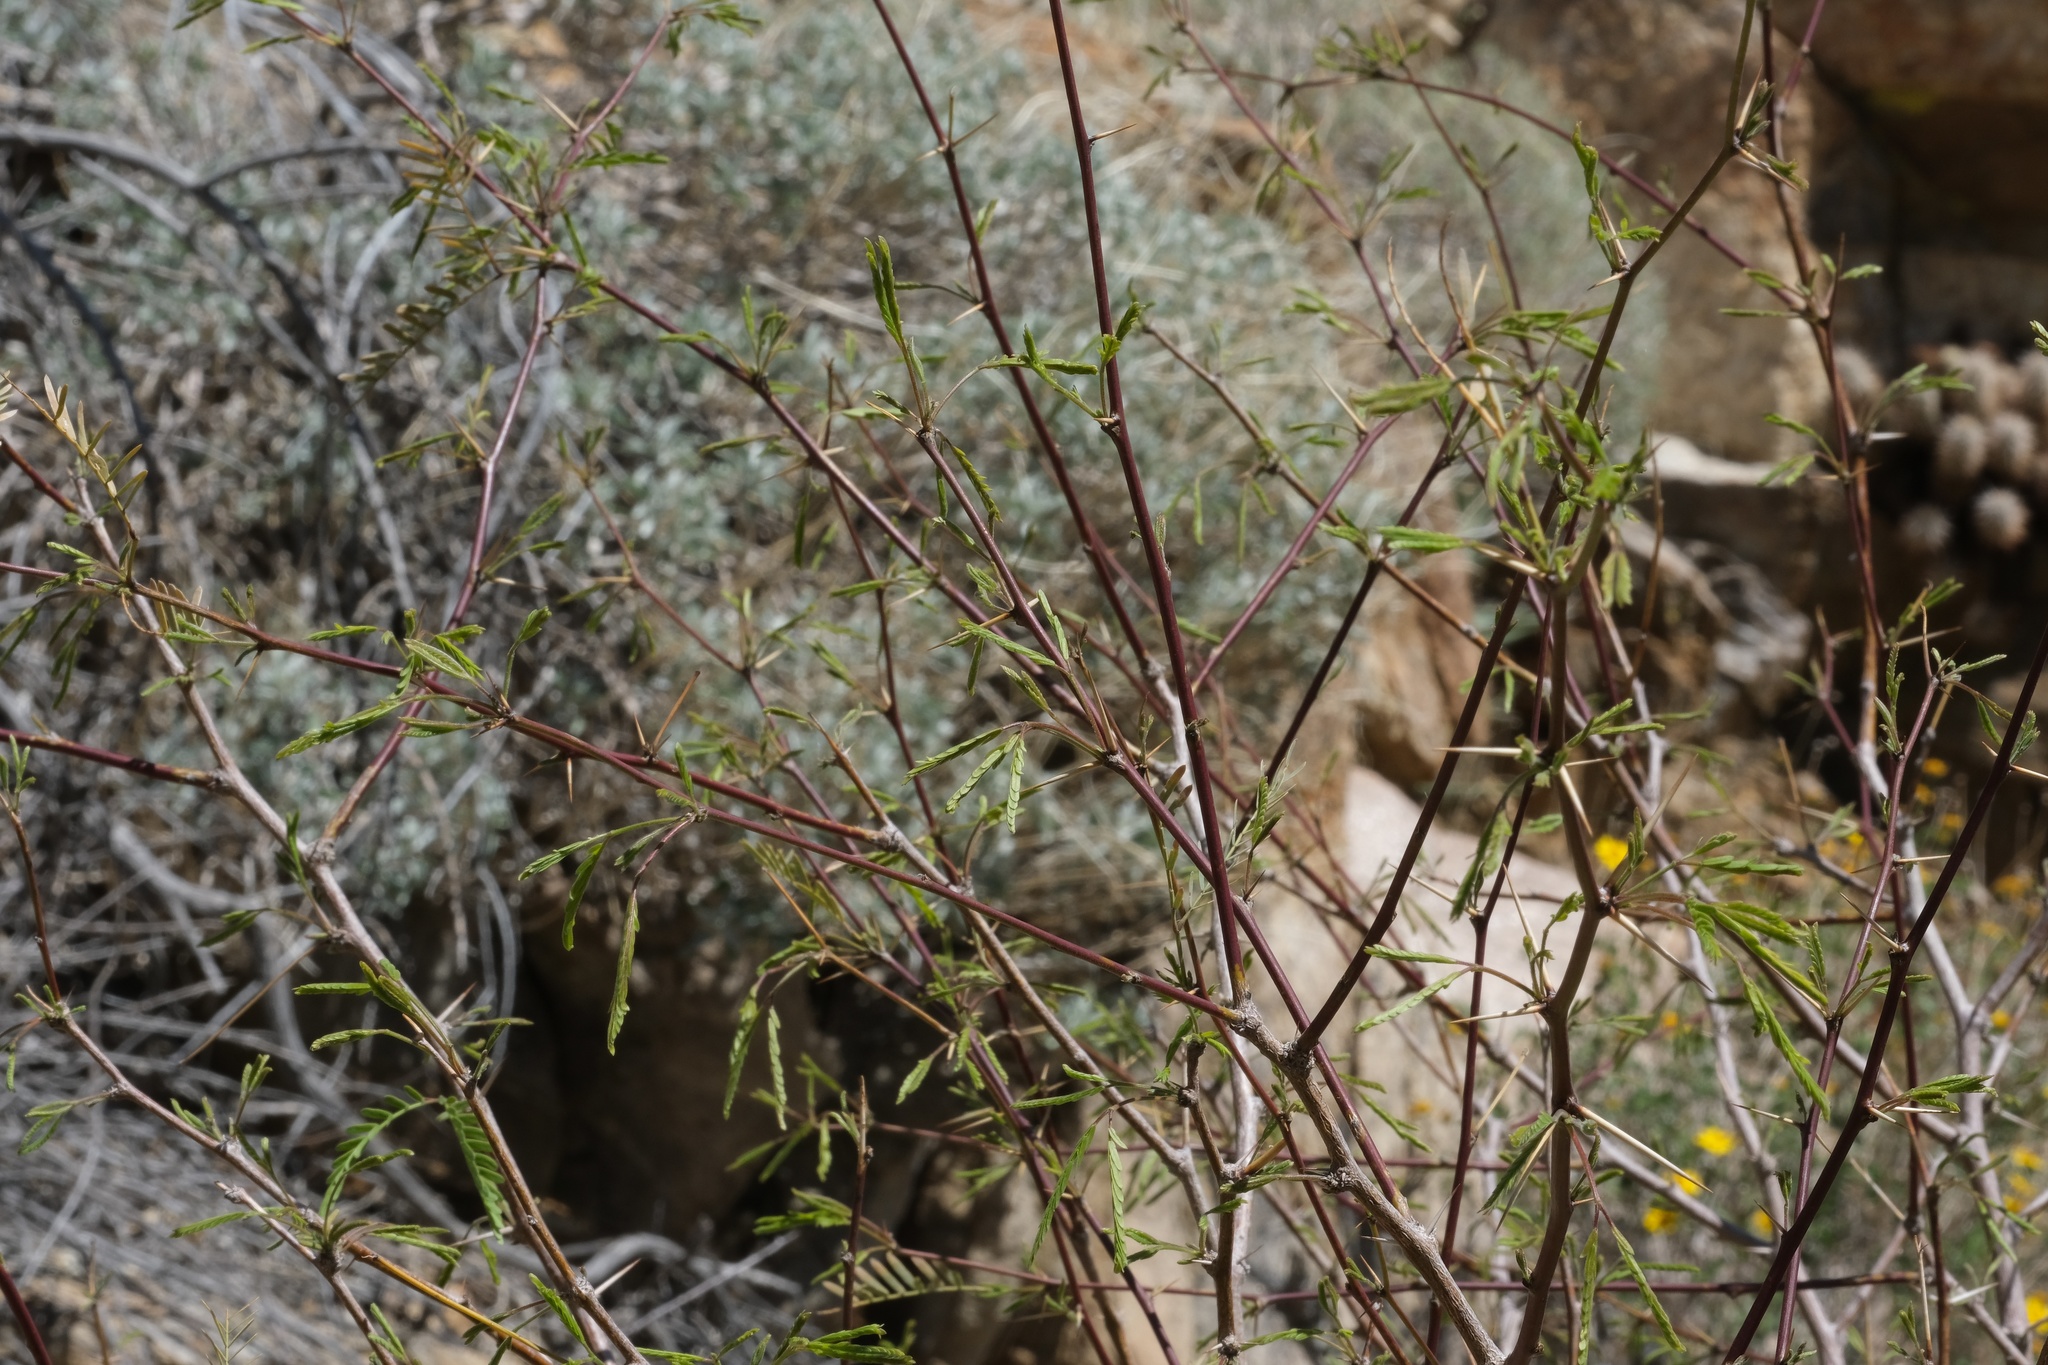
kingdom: Plantae
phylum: Tracheophyta
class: Magnoliopsida
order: Fabales
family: Fabaceae
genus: Prosopis
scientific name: Prosopis pubescens
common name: Screw-bean
